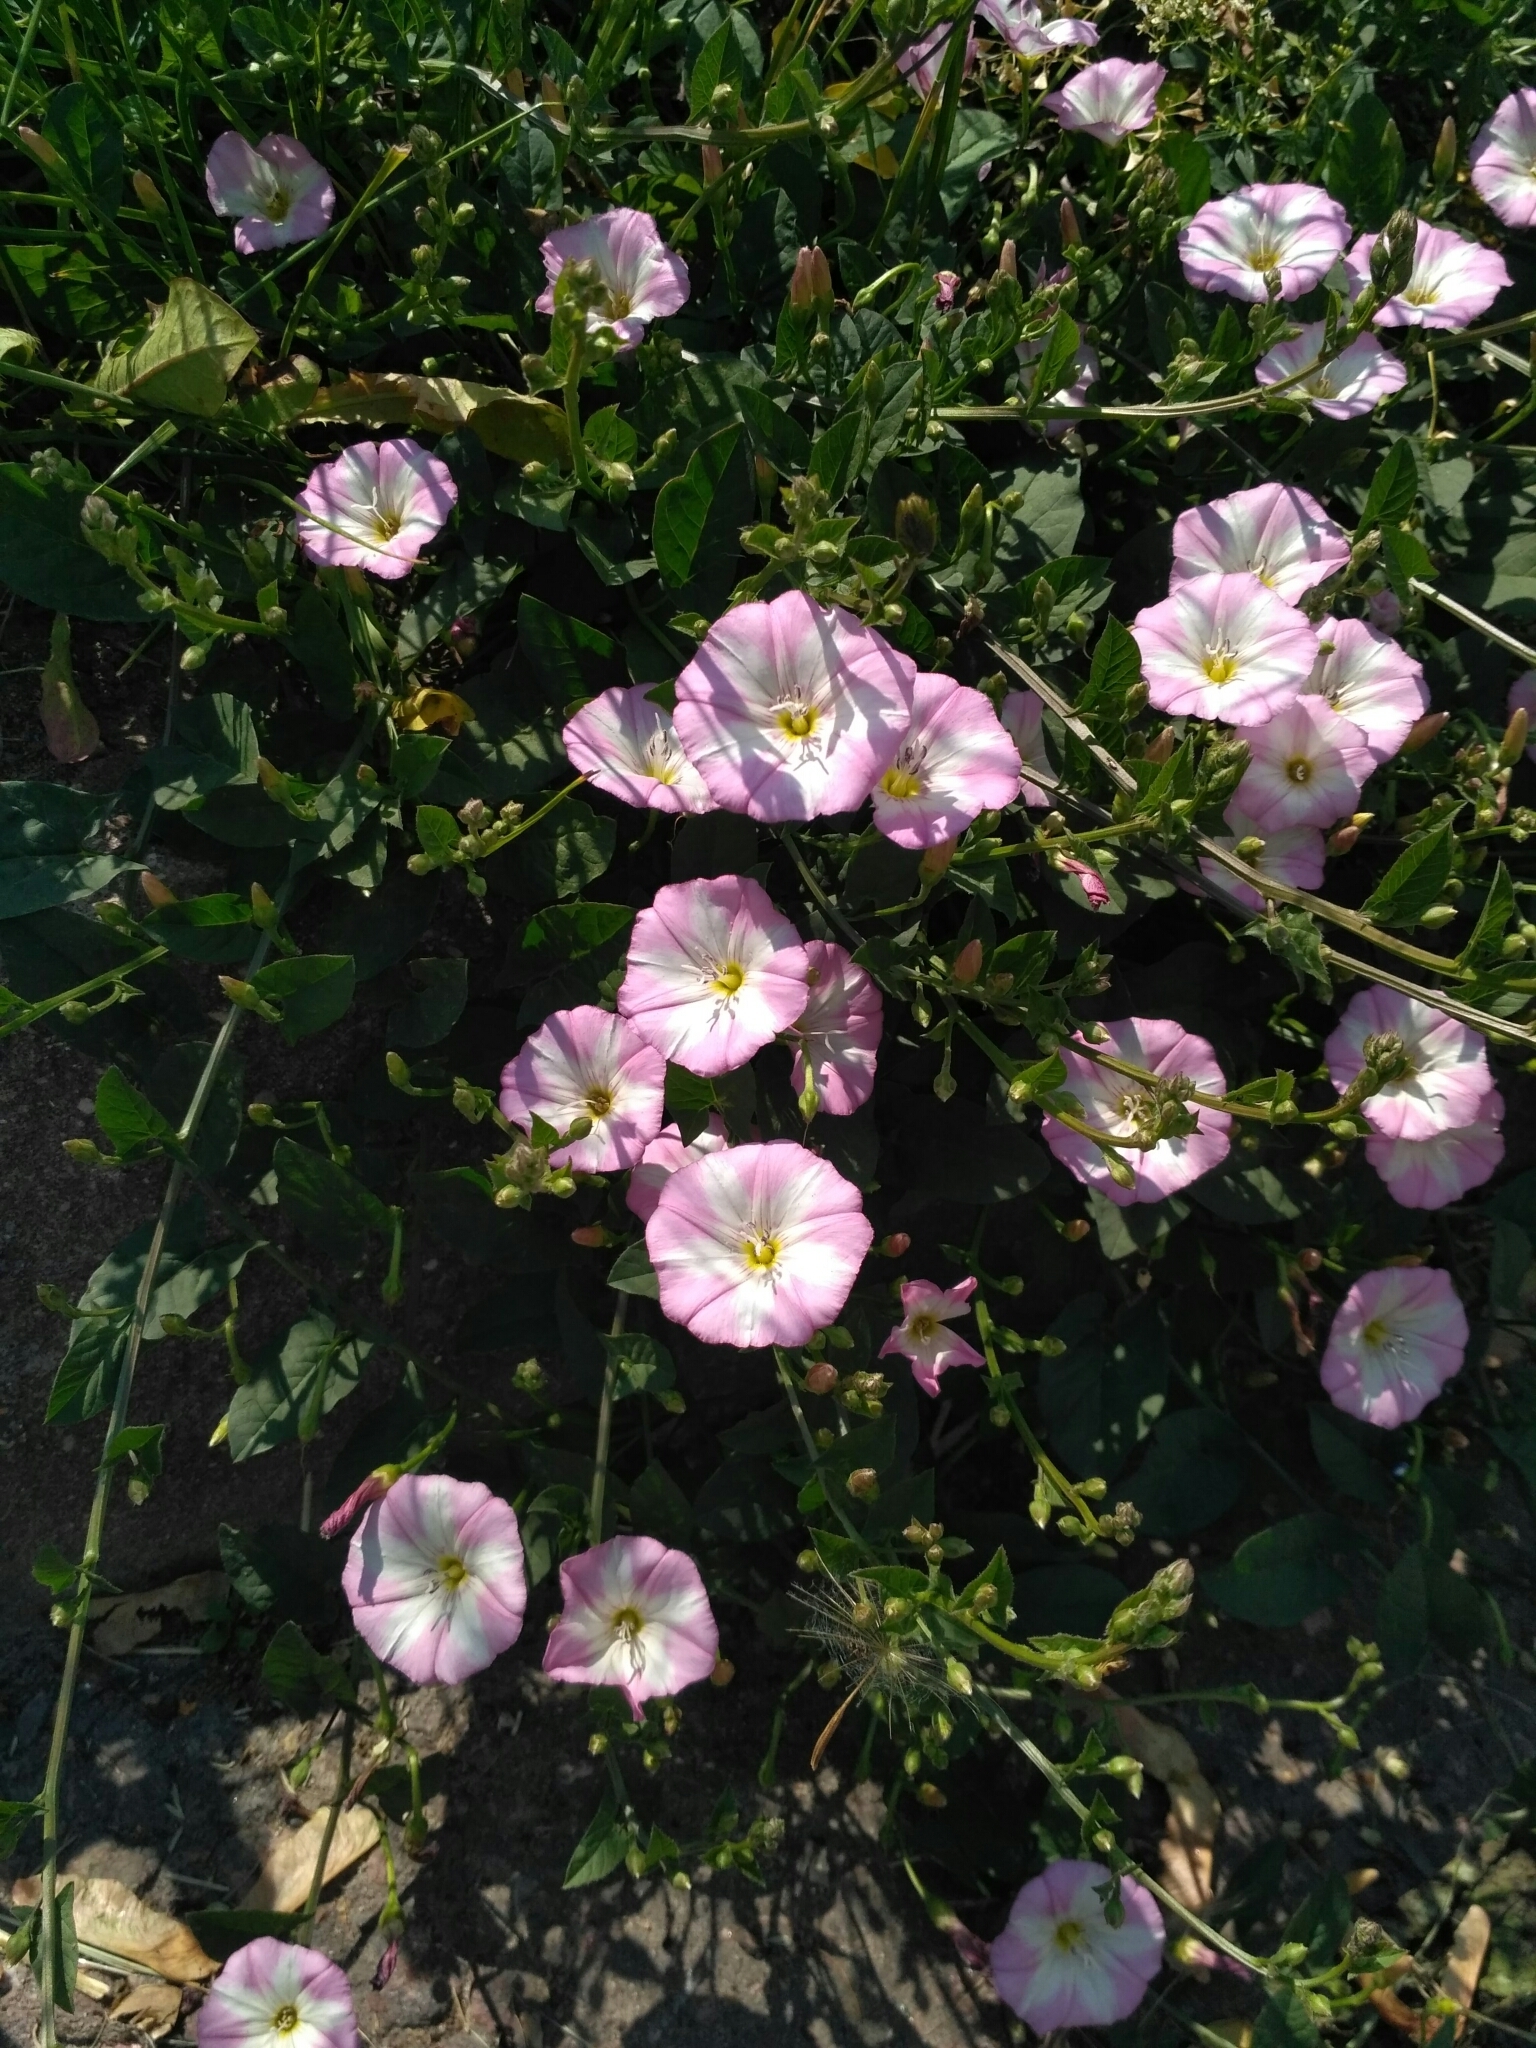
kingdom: Plantae
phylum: Tracheophyta
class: Magnoliopsida
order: Solanales
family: Convolvulaceae
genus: Convolvulus
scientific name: Convolvulus arvensis
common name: Field bindweed
